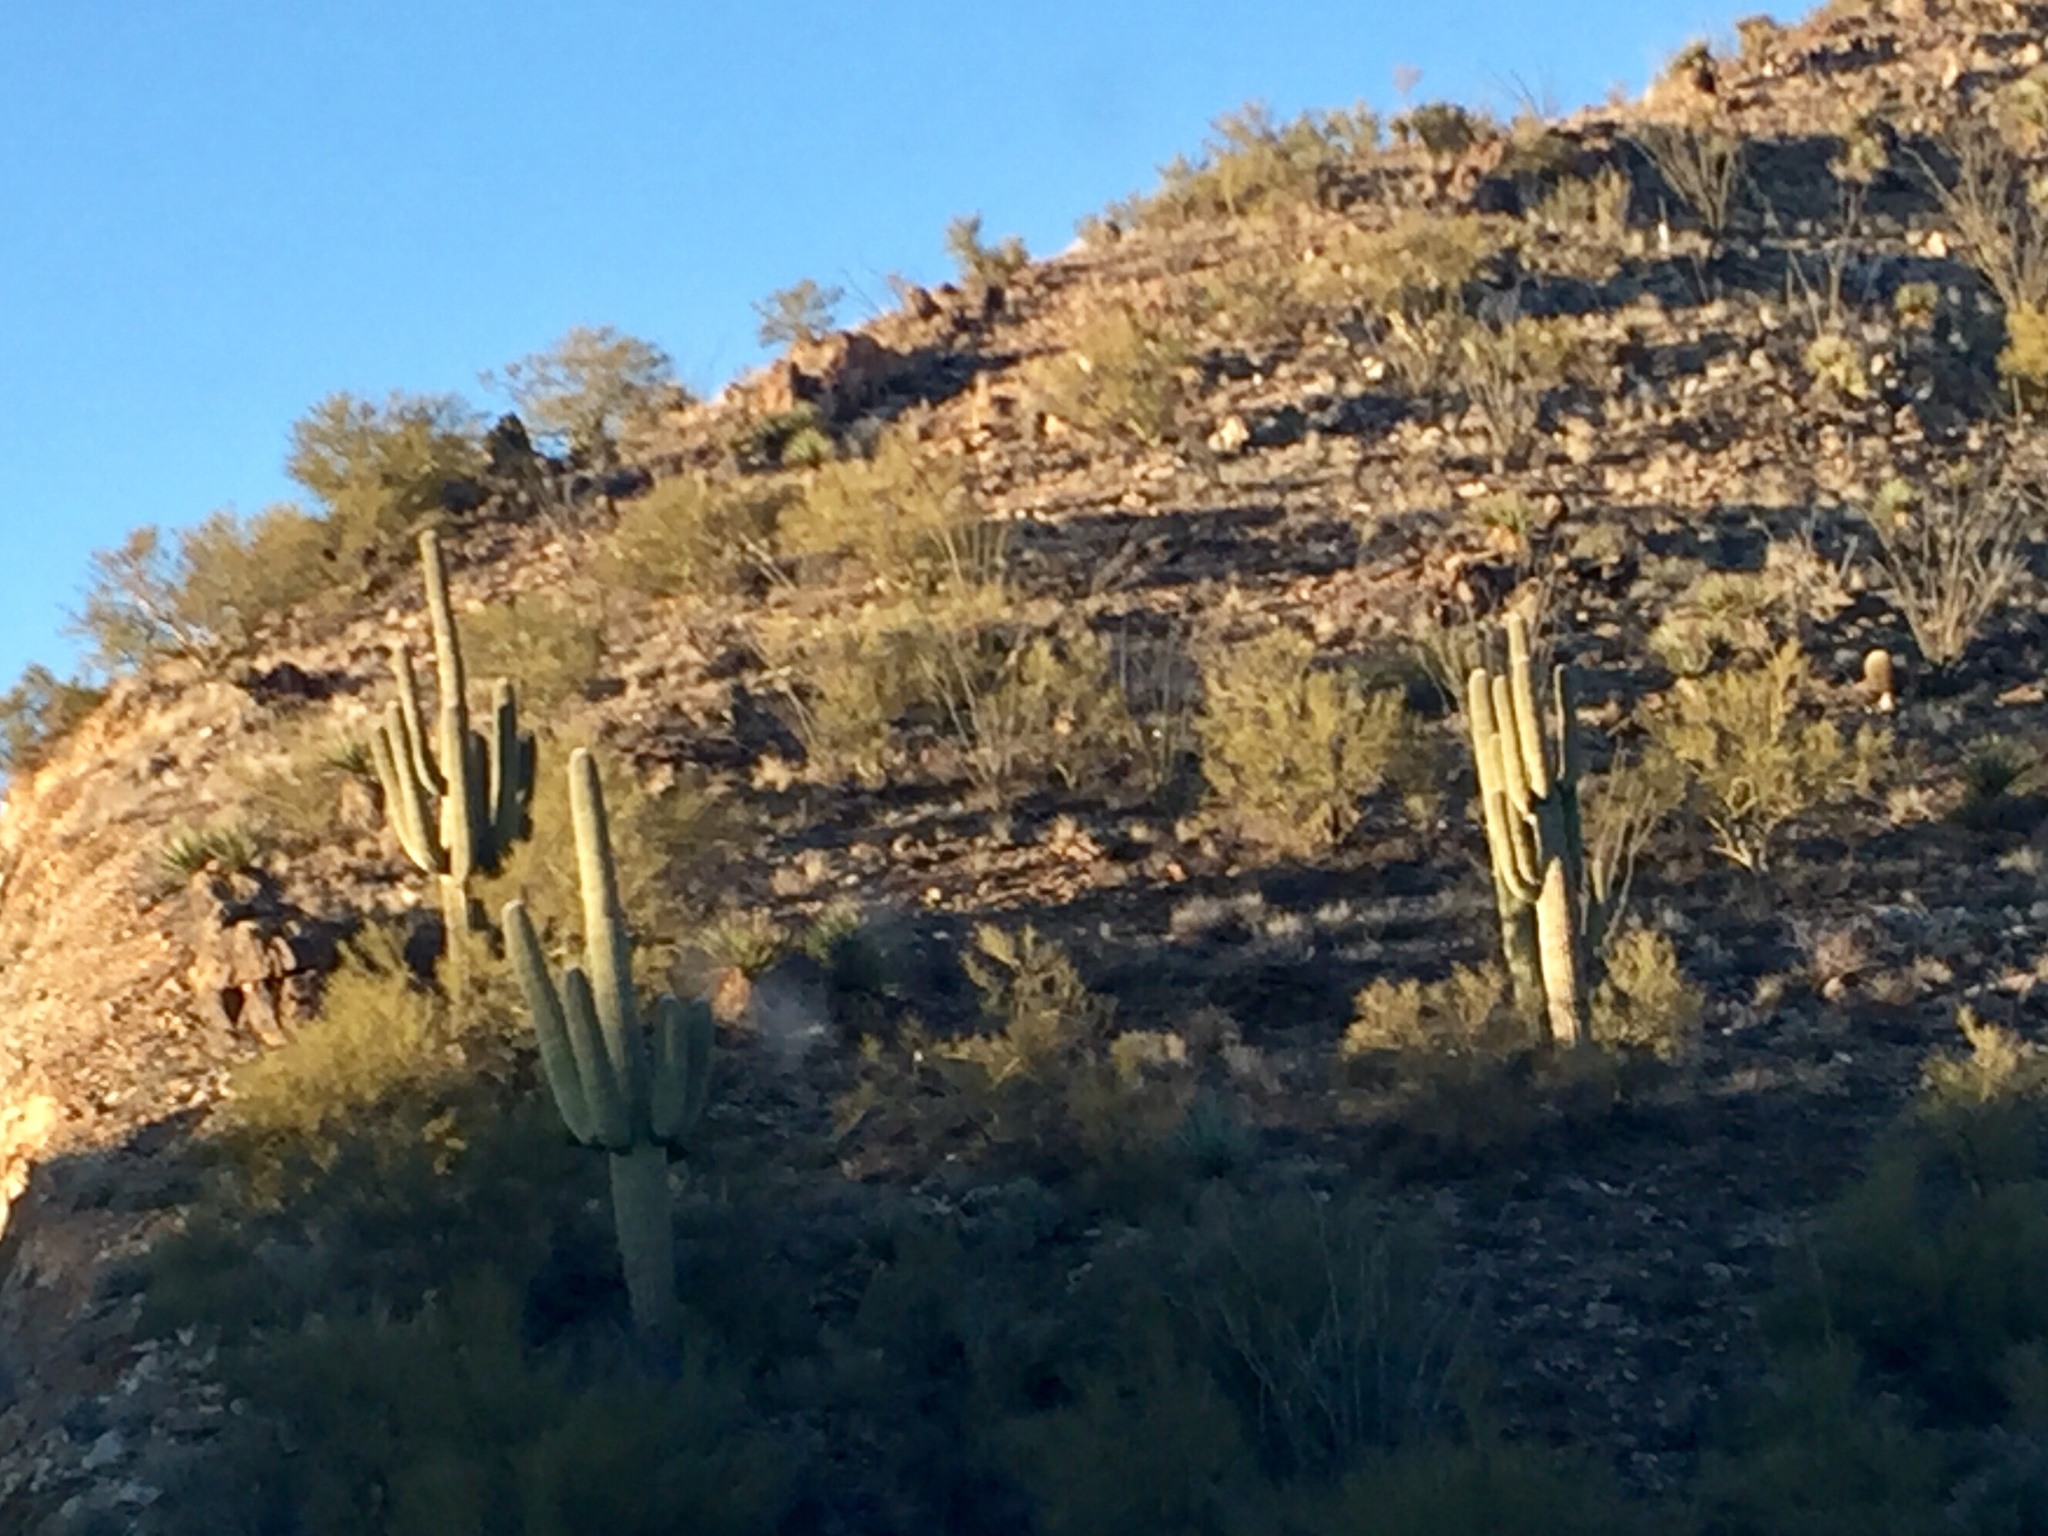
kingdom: Plantae
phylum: Tracheophyta
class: Magnoliopsida
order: Caryophyllales
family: Cactaceae
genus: Carnegiea
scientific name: Carnegiea gigantea
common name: Saguaro
